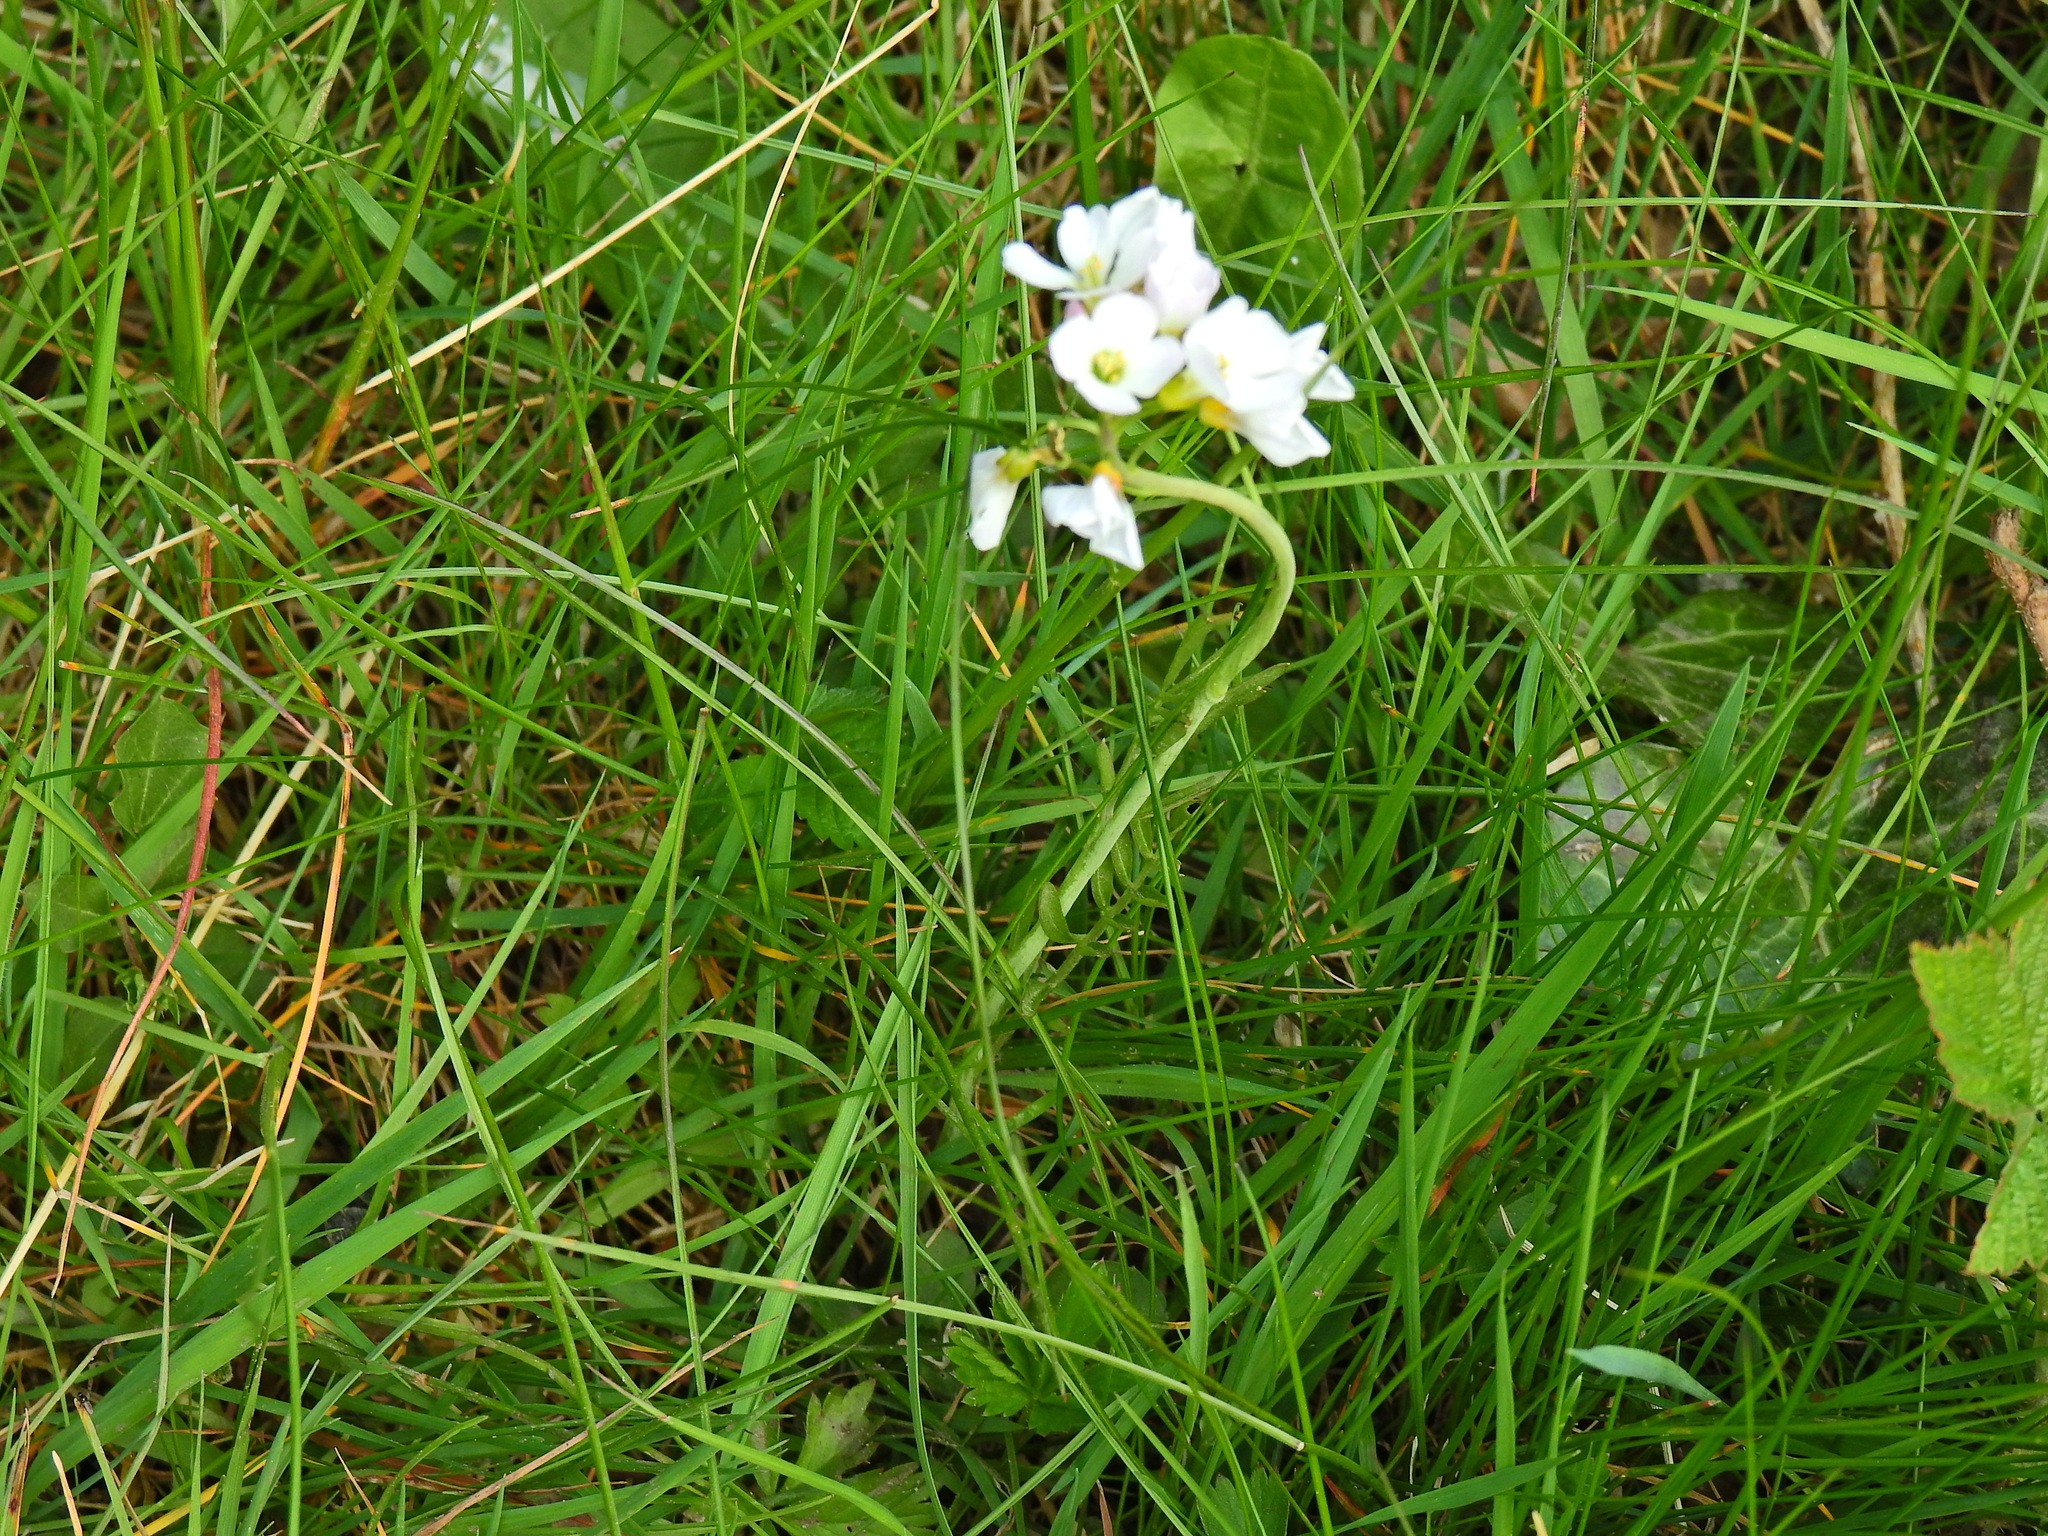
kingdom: Plantae
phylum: Tracheophyta
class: Magnoliopsida
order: Brassicales
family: Brassicaceae
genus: Cardamine
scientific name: Cardamine pratensis
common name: Cuckoo flower
